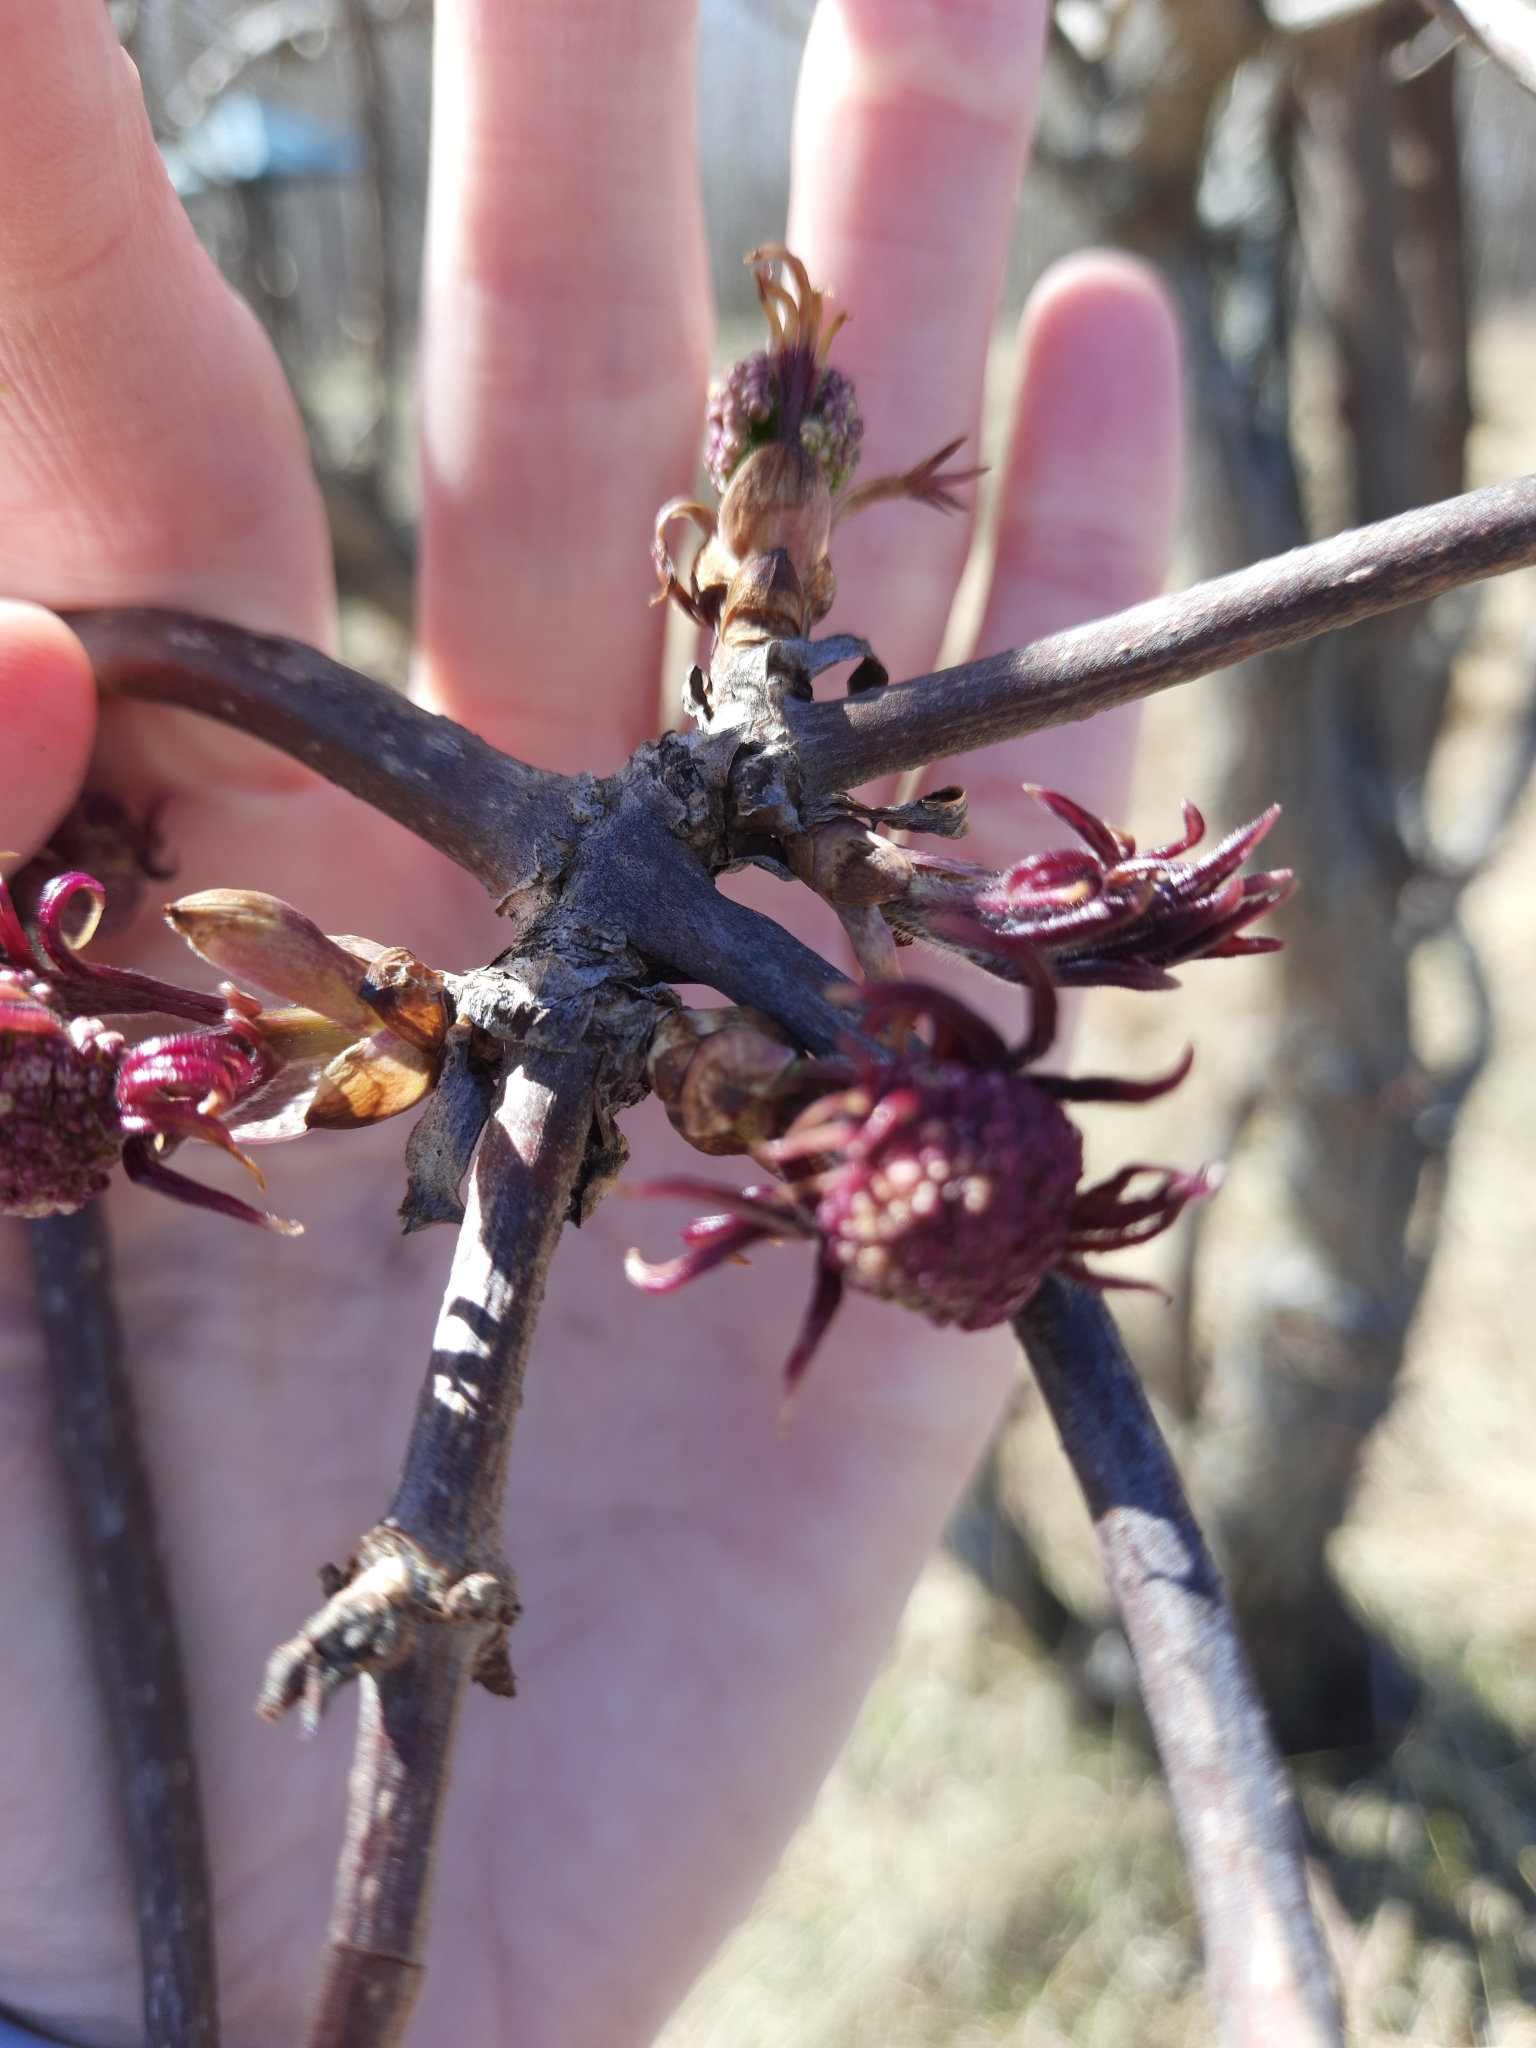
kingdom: Plantae
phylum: Tracheophyta
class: Magnoliopsida
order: Dipsacales
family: Viburnaceae
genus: Sambucus
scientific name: Sambucus sibirica
